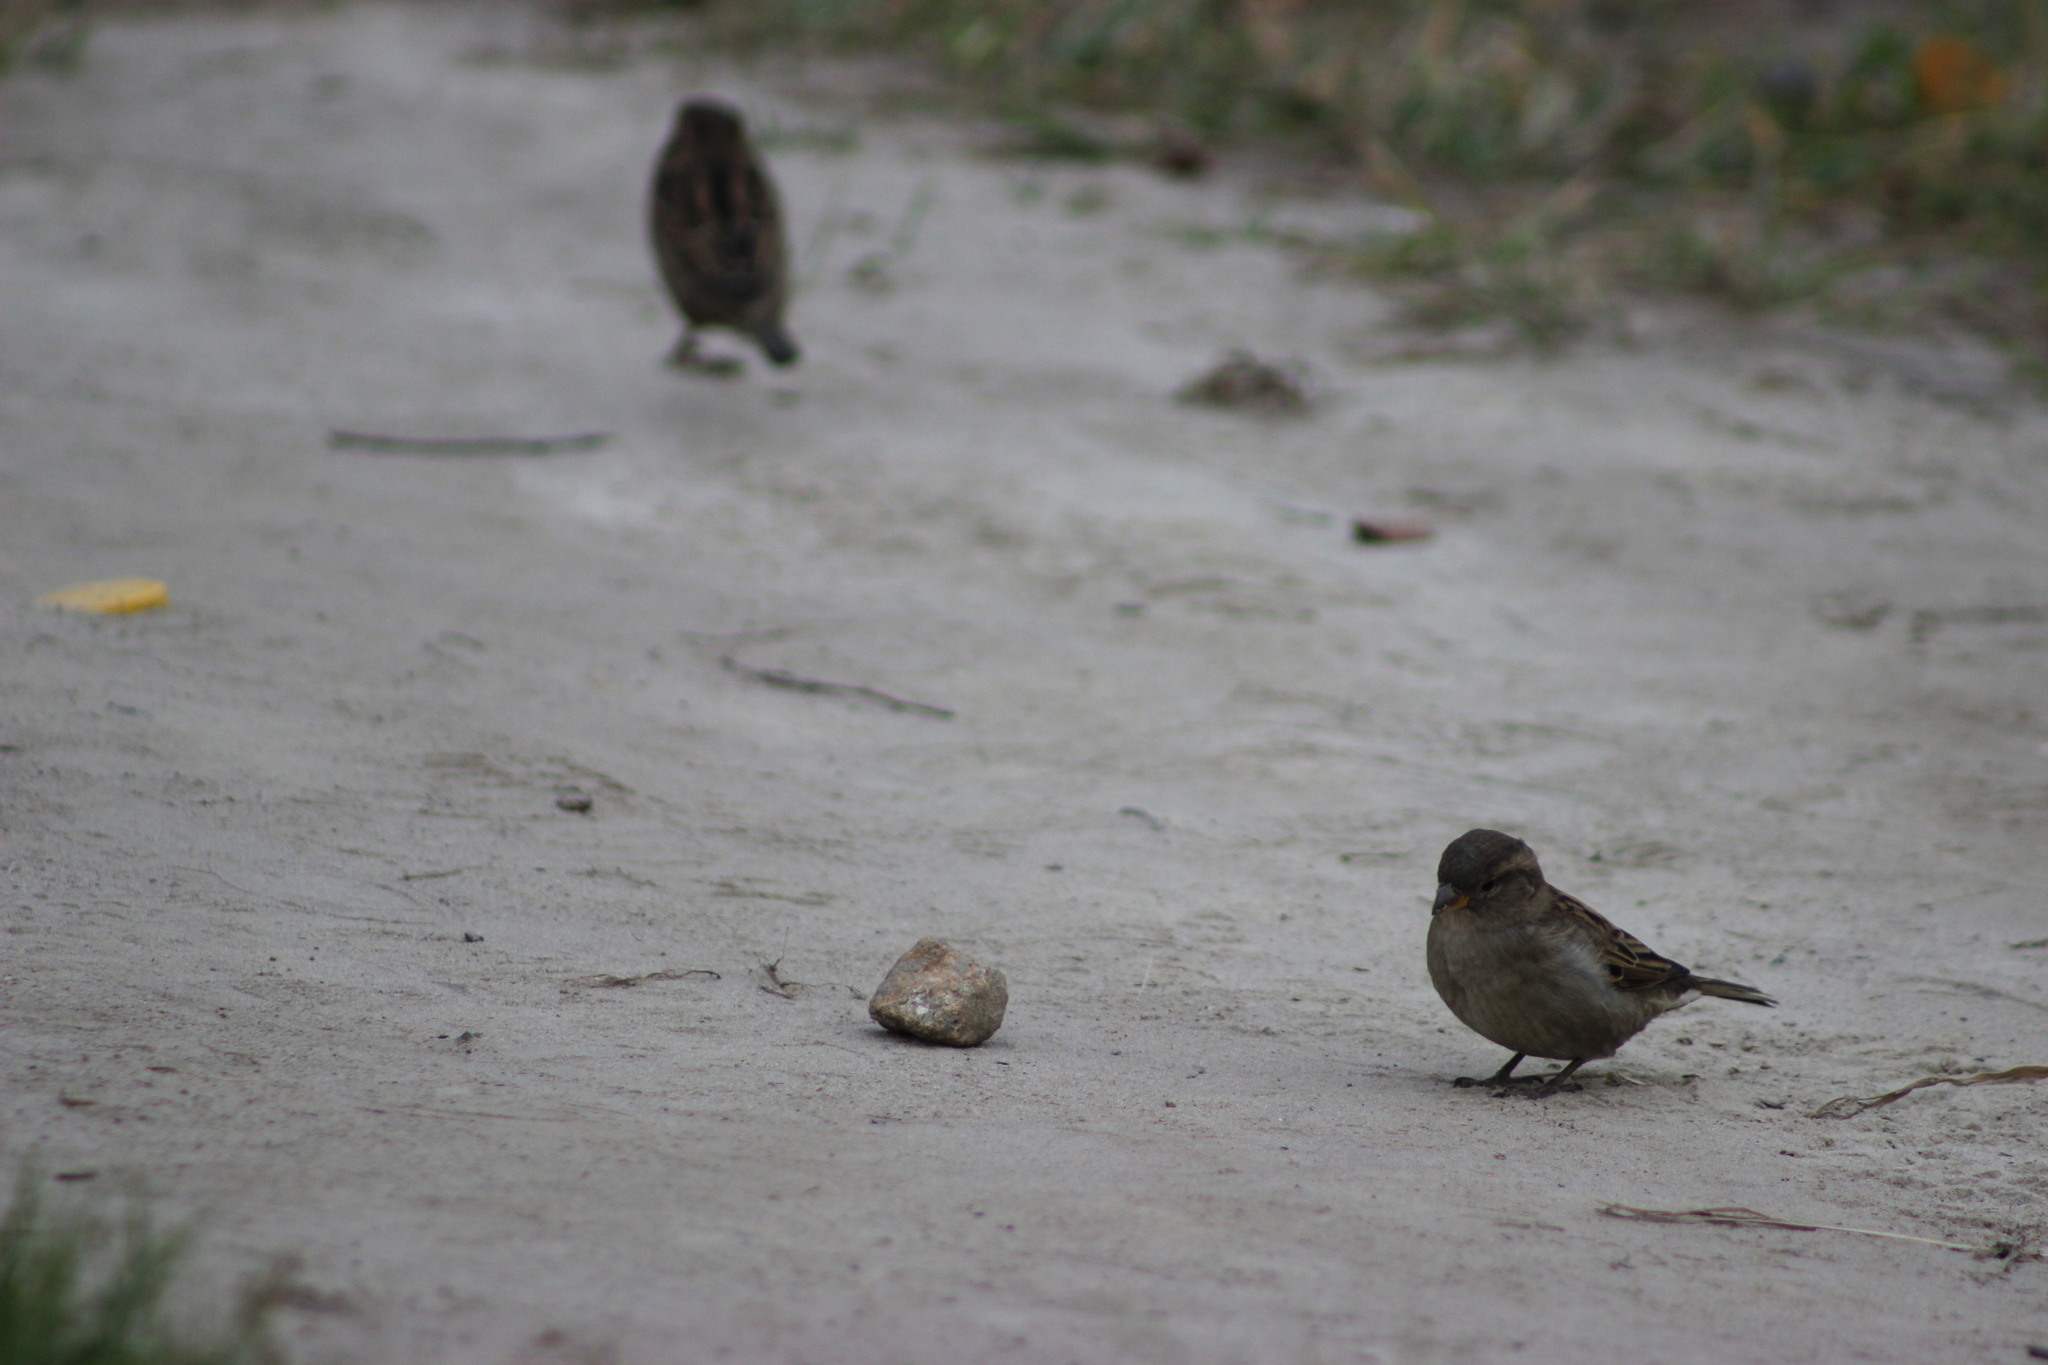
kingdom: Animalia
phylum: Chordata
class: Aves
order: Passeriformes
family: Passeridae
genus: Passer
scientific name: Passer domesticus
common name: House sparrow
